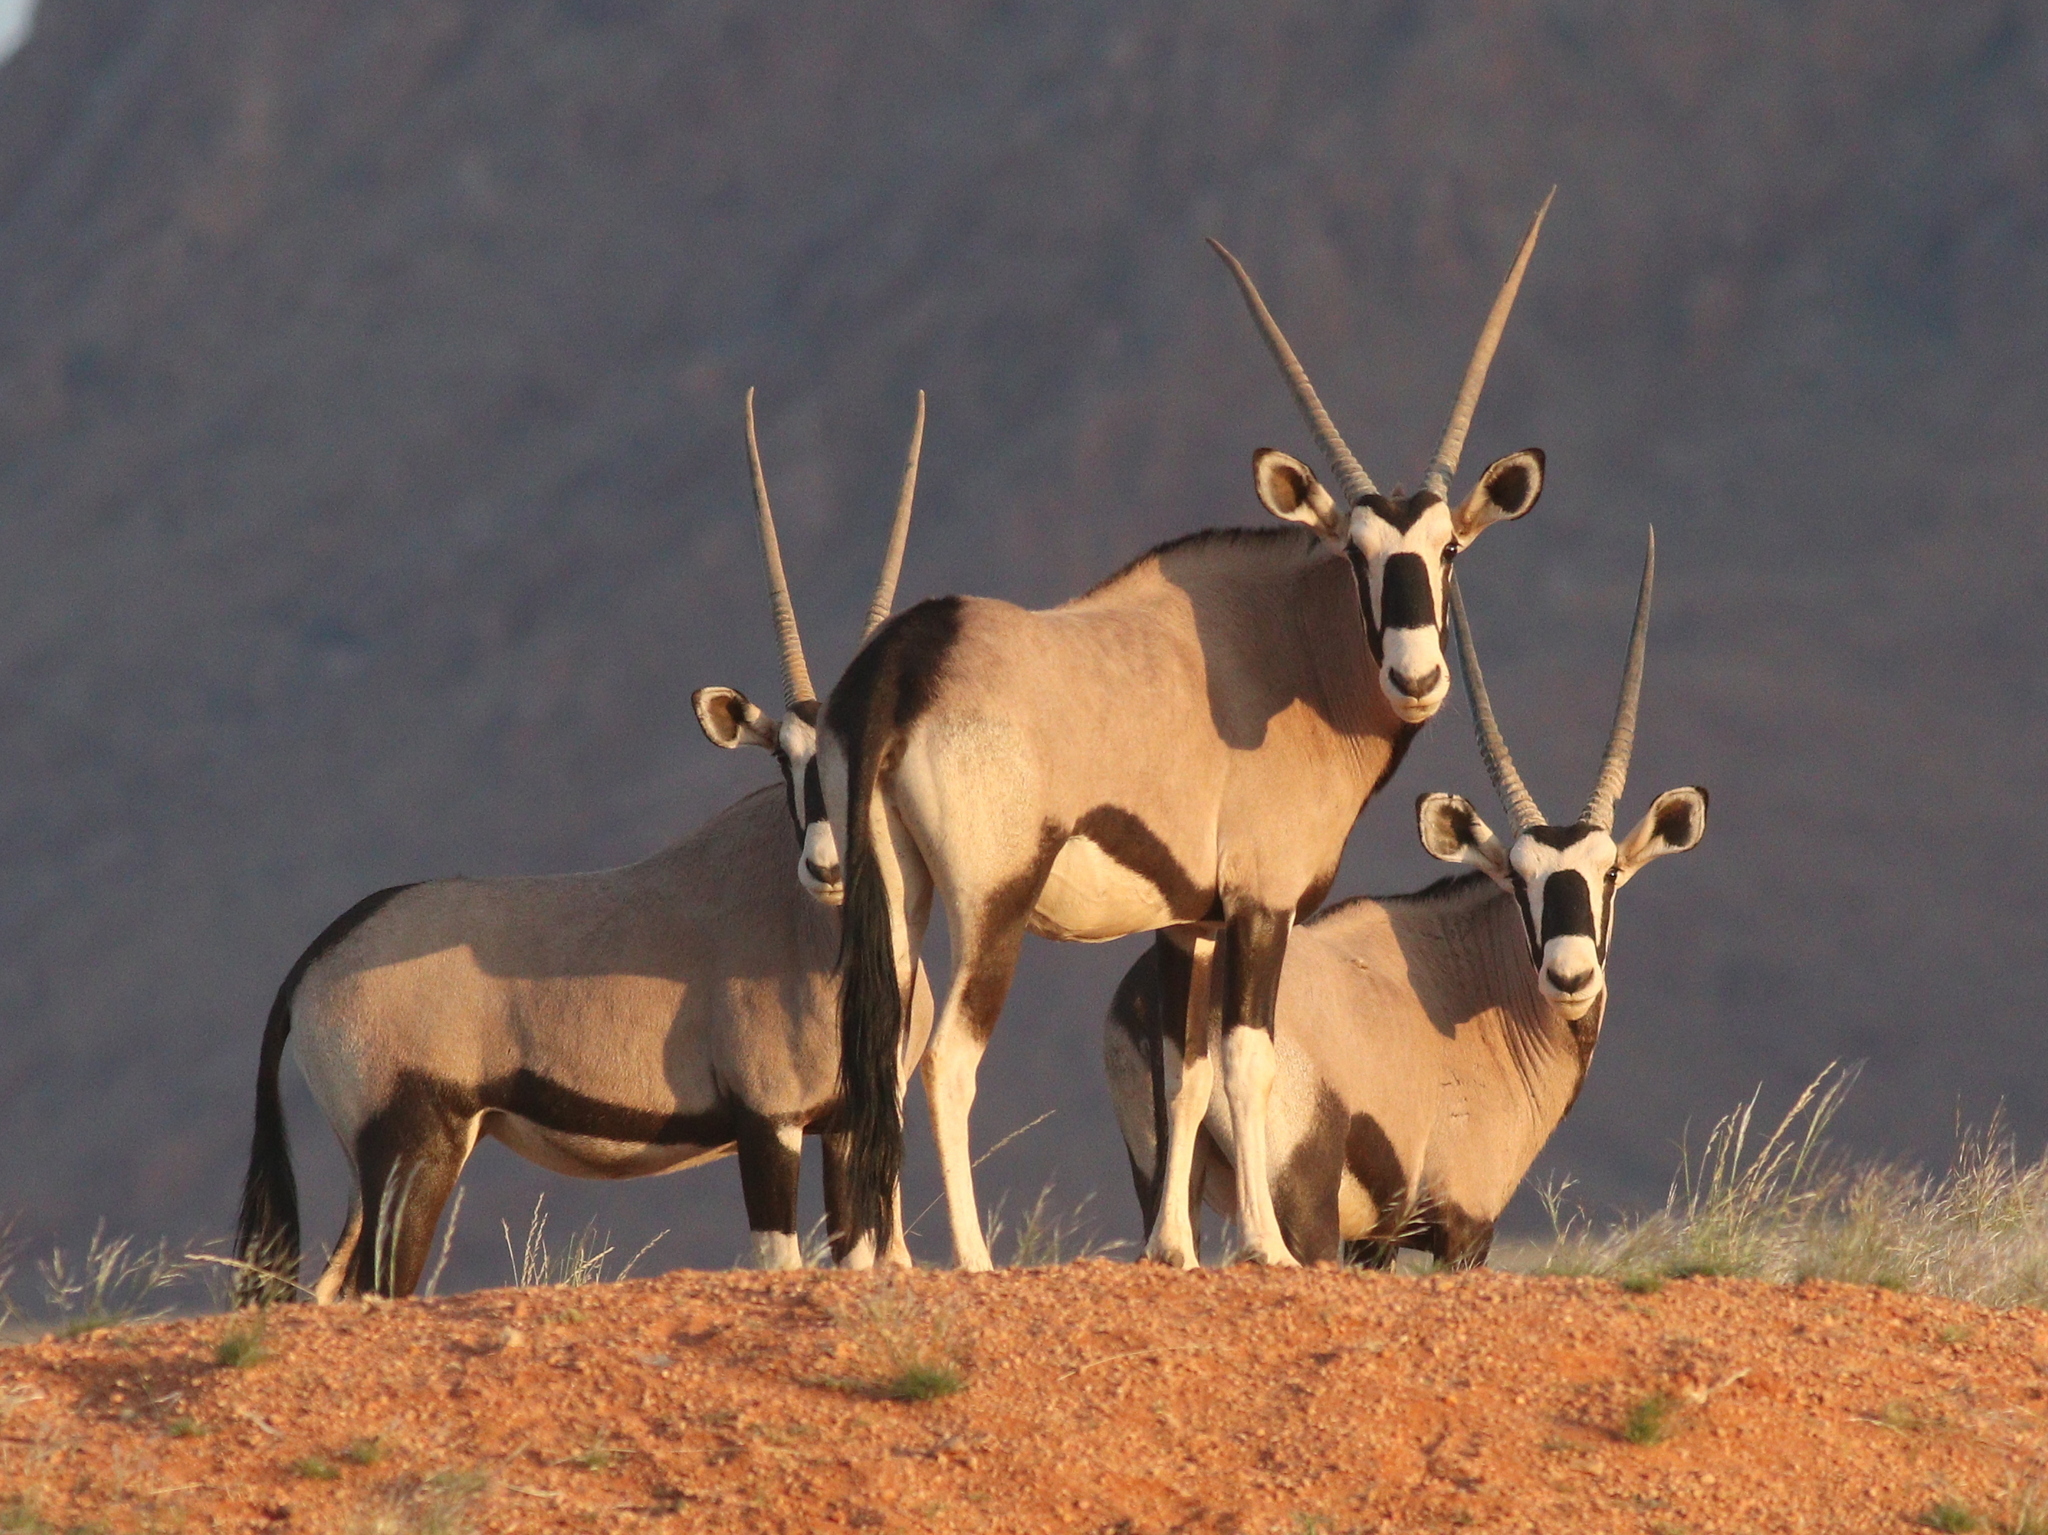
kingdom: Animalia
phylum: Chordata
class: Mammalia
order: Artiodactyla
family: Bovidae
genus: Oryx
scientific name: Oryx gazella
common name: Gemsbok
